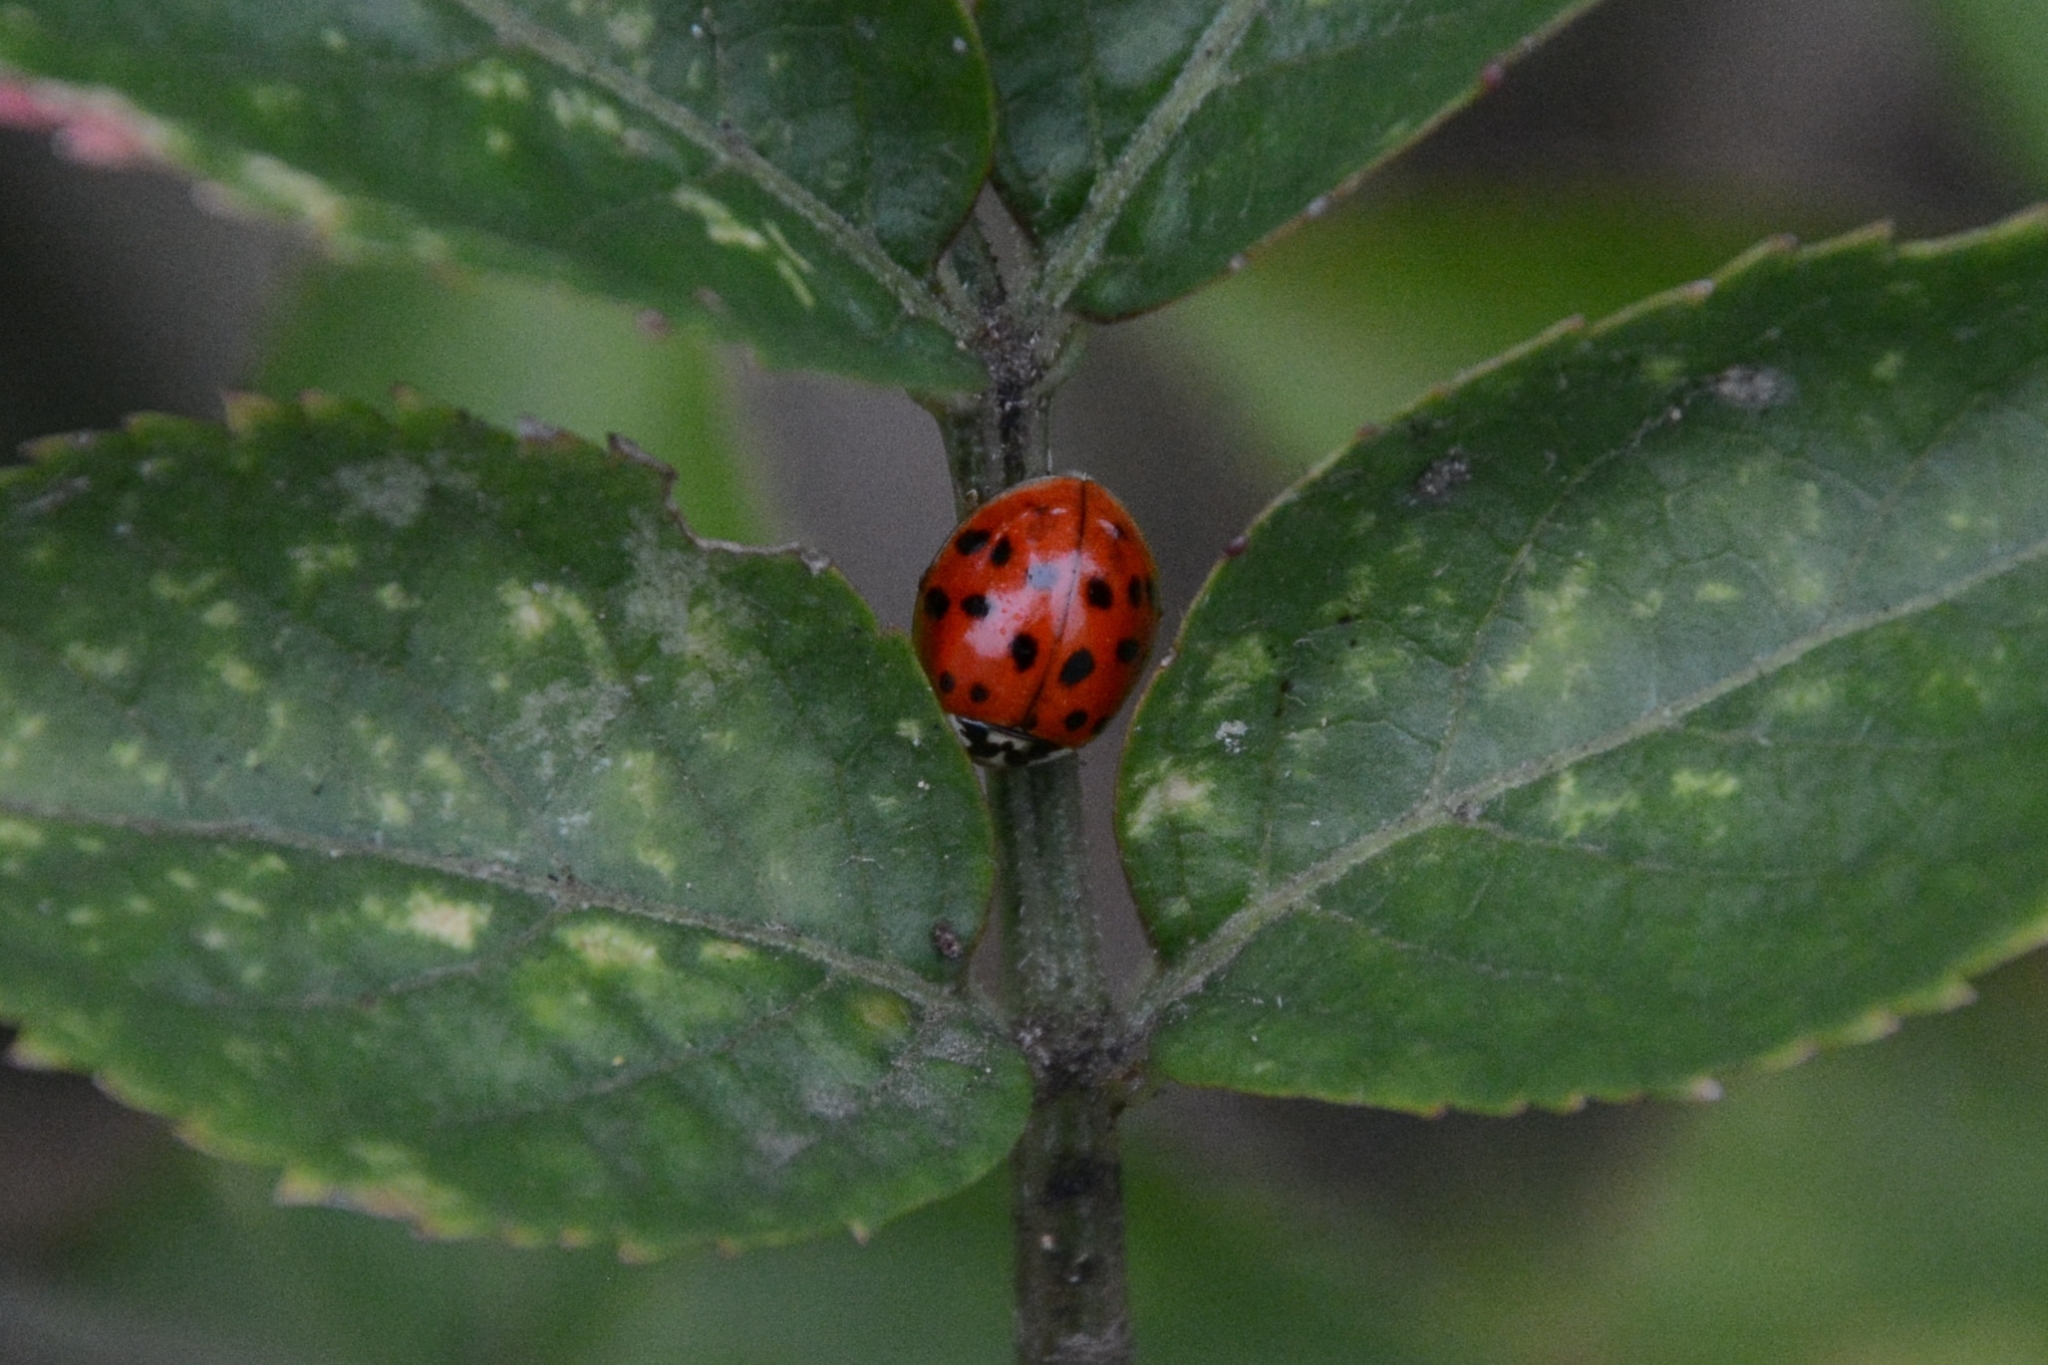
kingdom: Animalia
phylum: Arthropoda
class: Insecta
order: Coleoptera
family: Coccinellidae
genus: Harmonia
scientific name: Harmonia axyridis
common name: Harlequin ladybird
